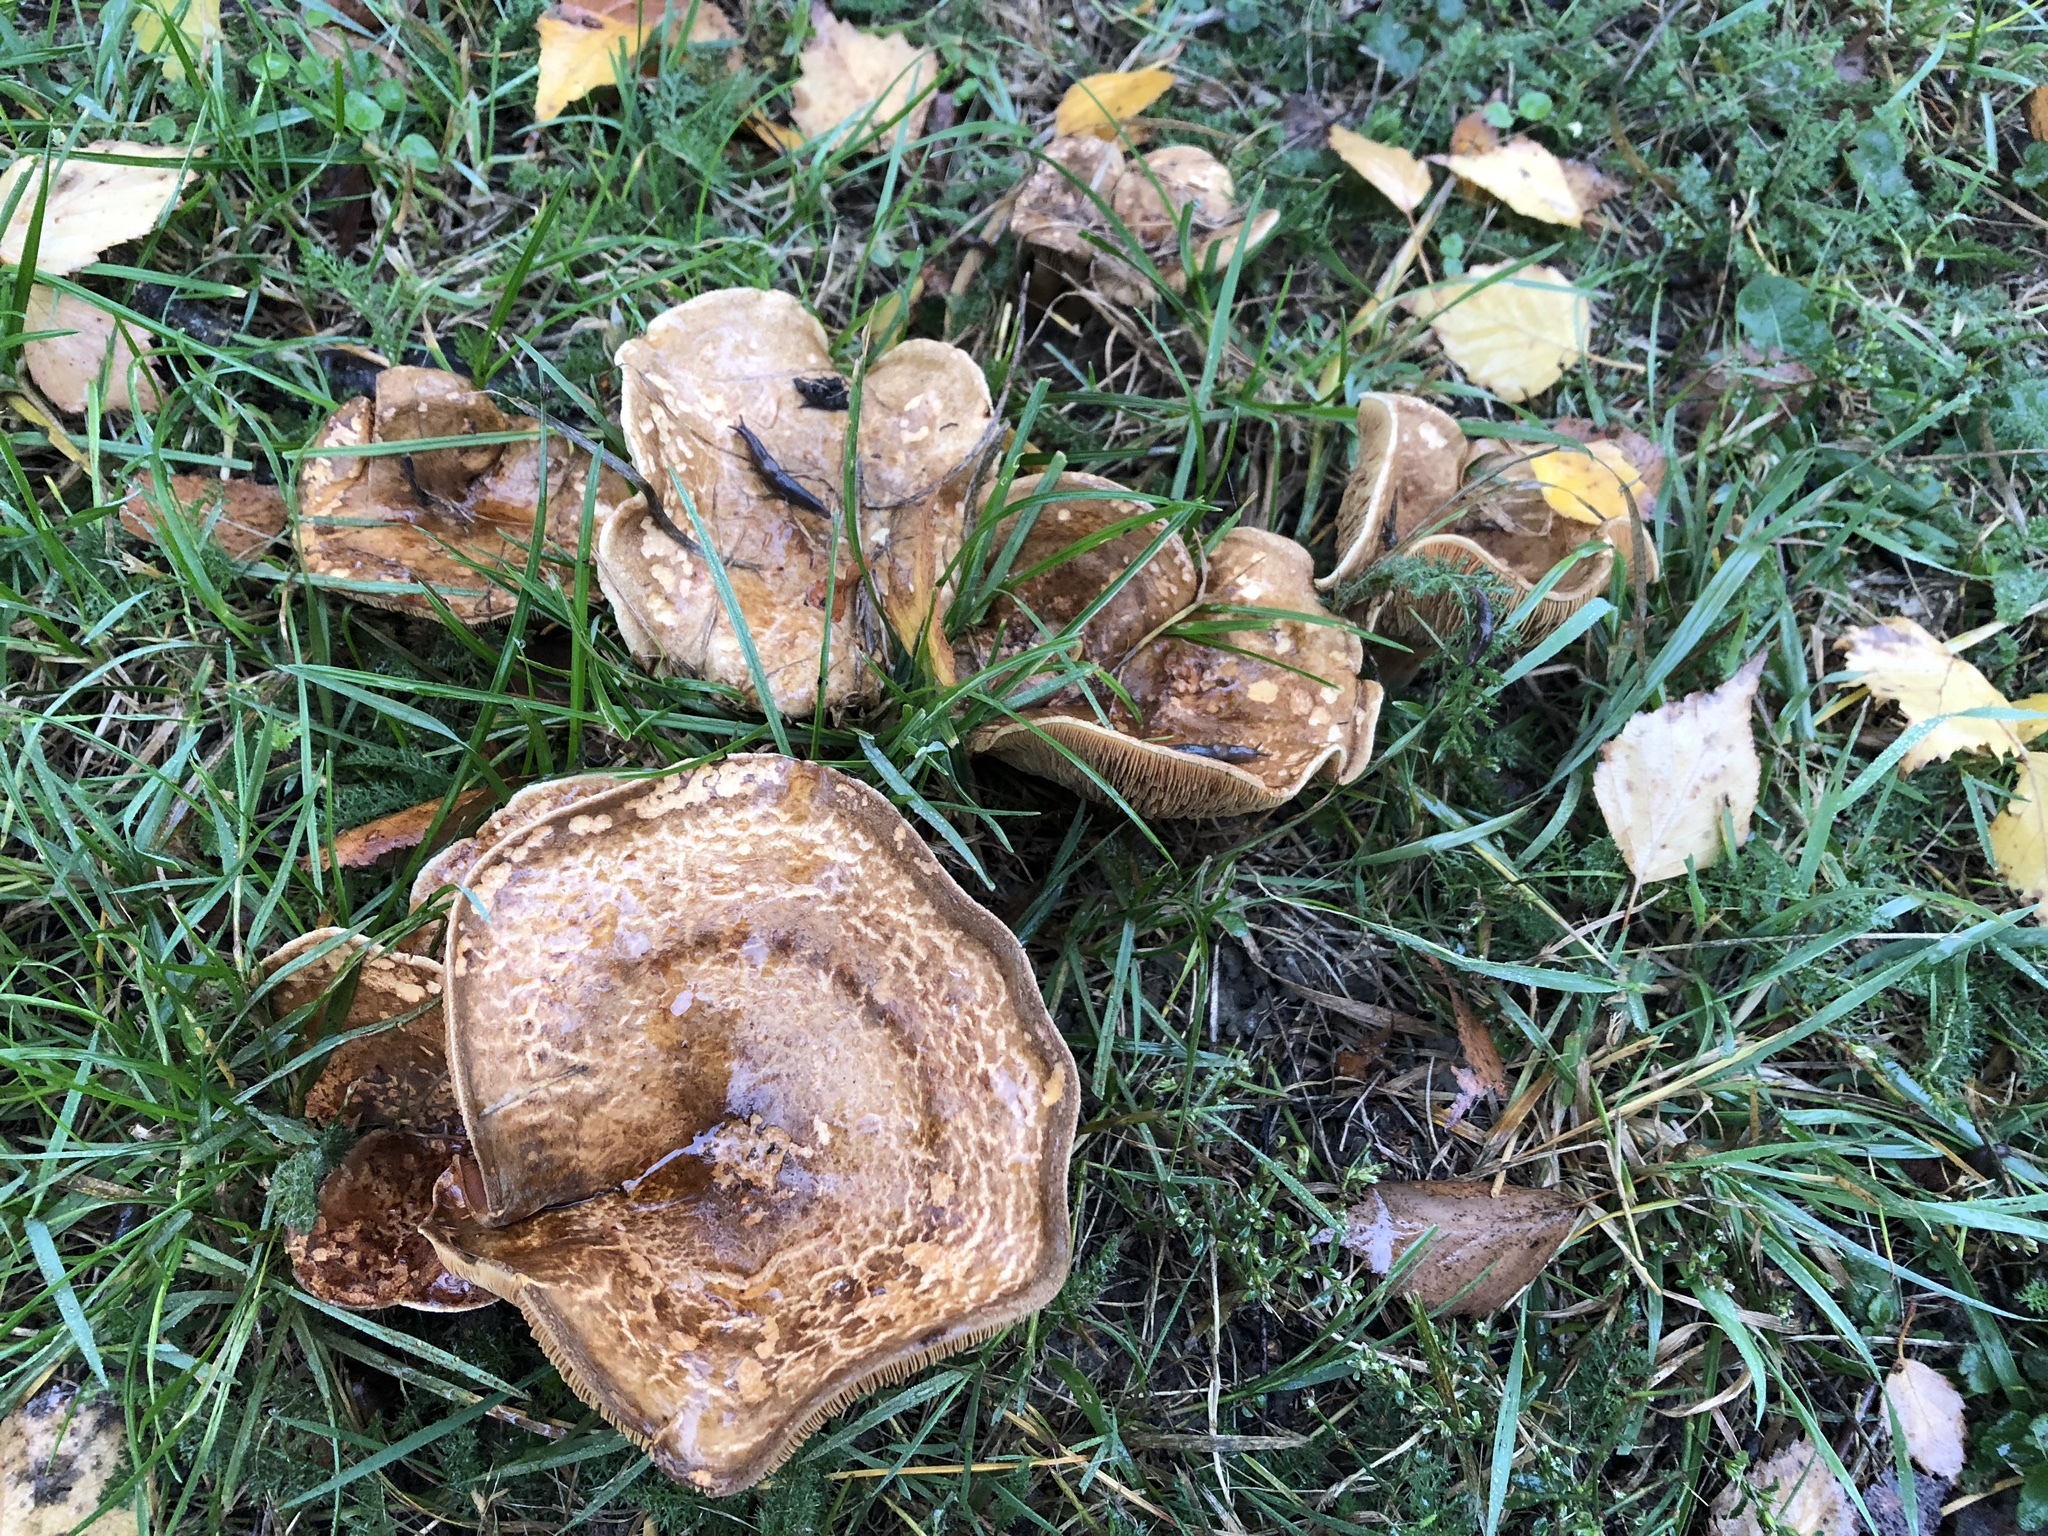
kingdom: Fungi
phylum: Basidiomycota
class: Agaricomycetes
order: Boletales
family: Paxillaceae
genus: Paxillus
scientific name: Paxillus involutus
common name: Brown roll rim
